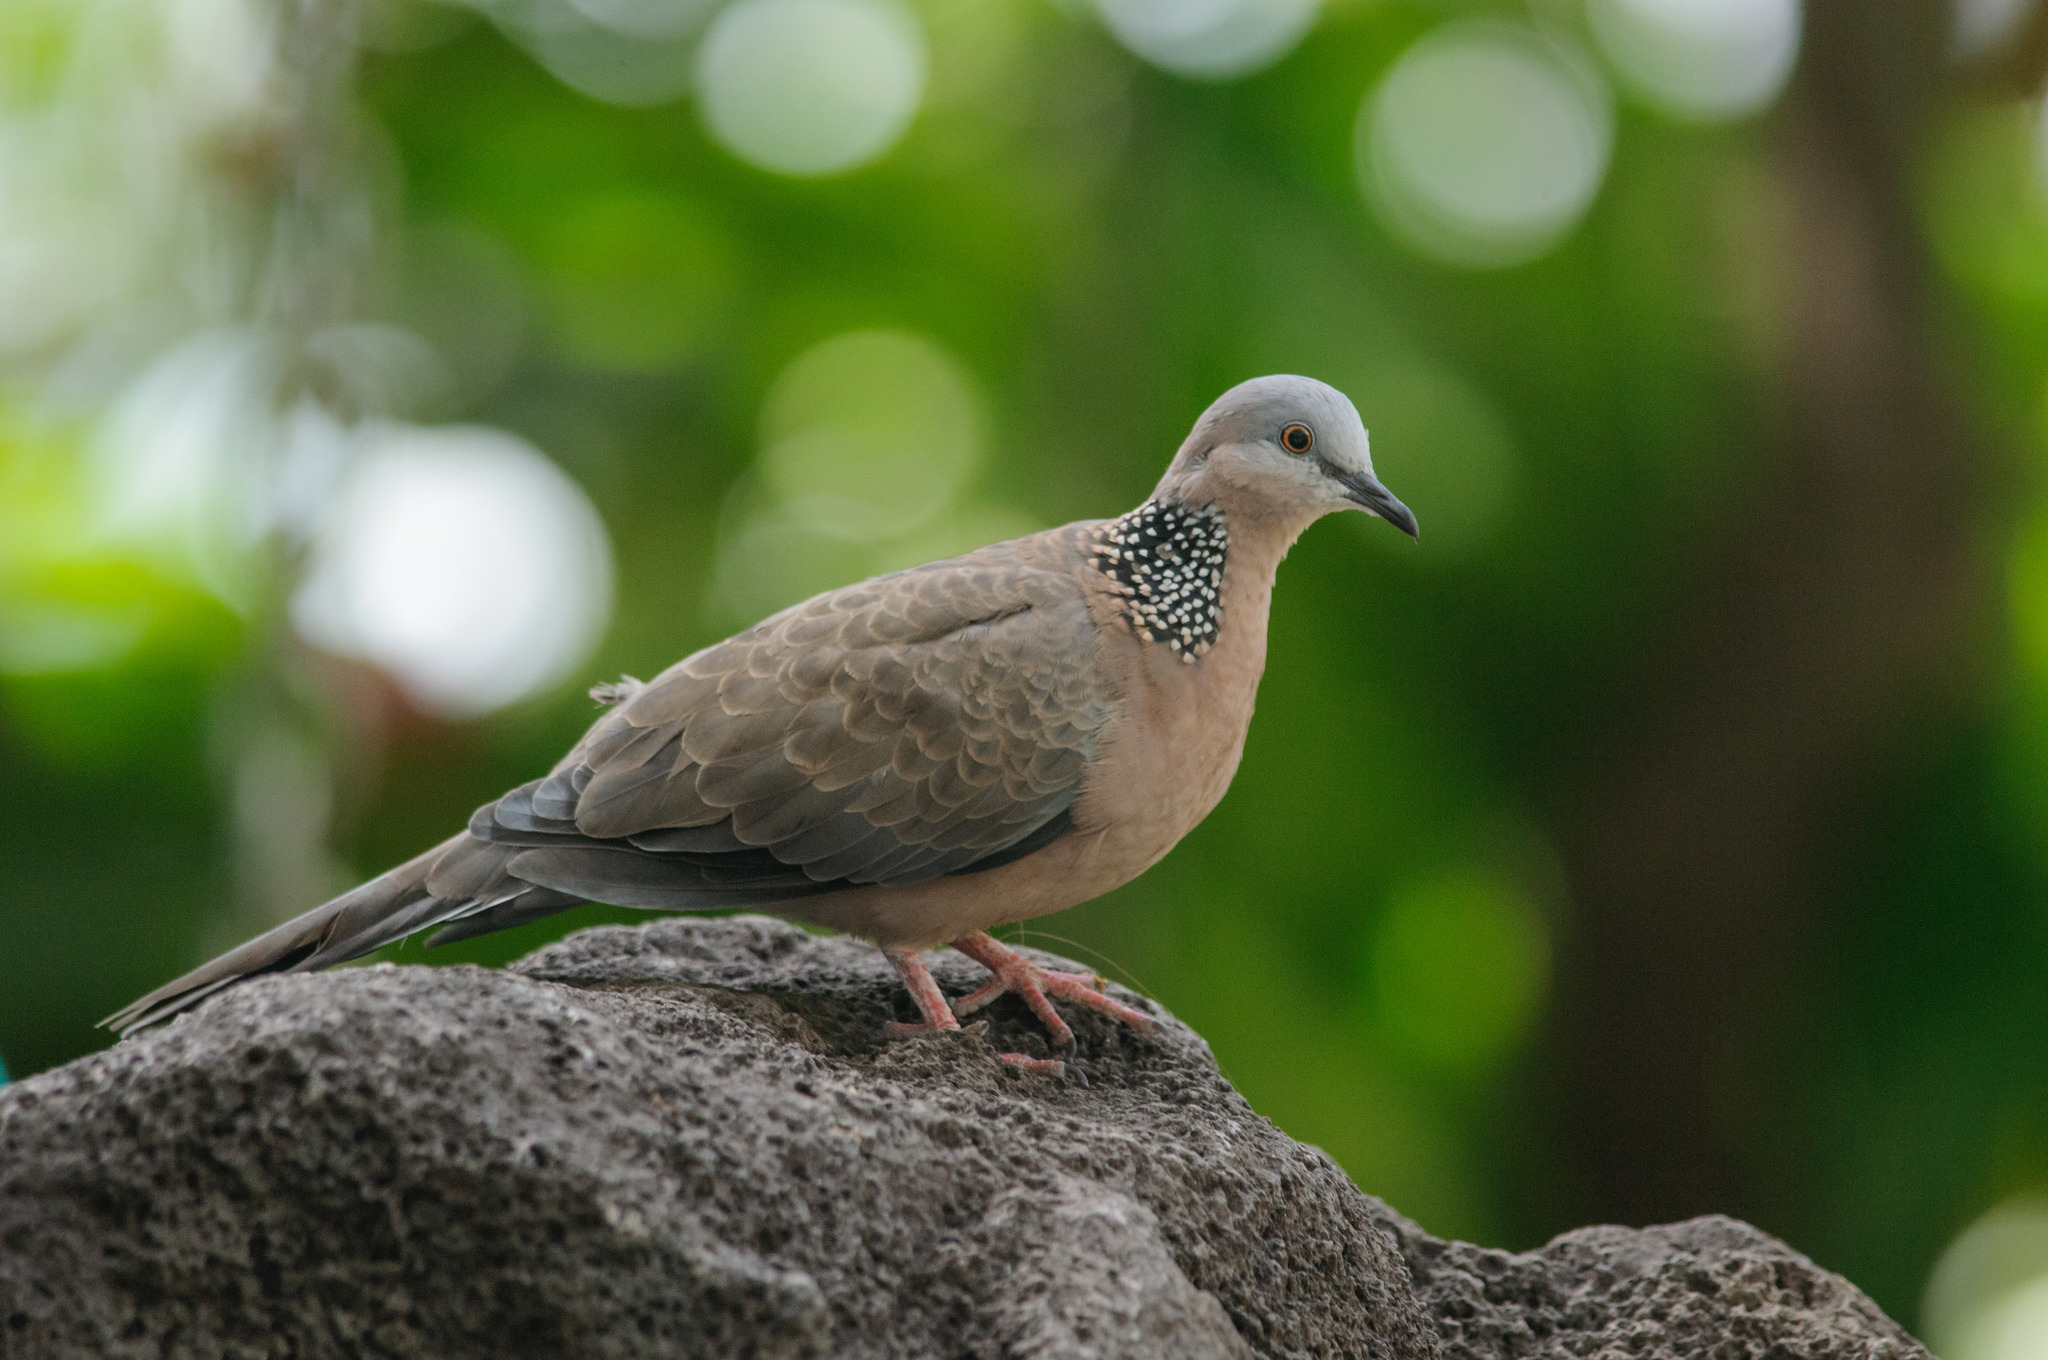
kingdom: Animalia
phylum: Chordata
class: Aves
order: Columbiformes
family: Columbidae
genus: Spilopelia
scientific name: Spilopelia chinensis
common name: Spotted dove
